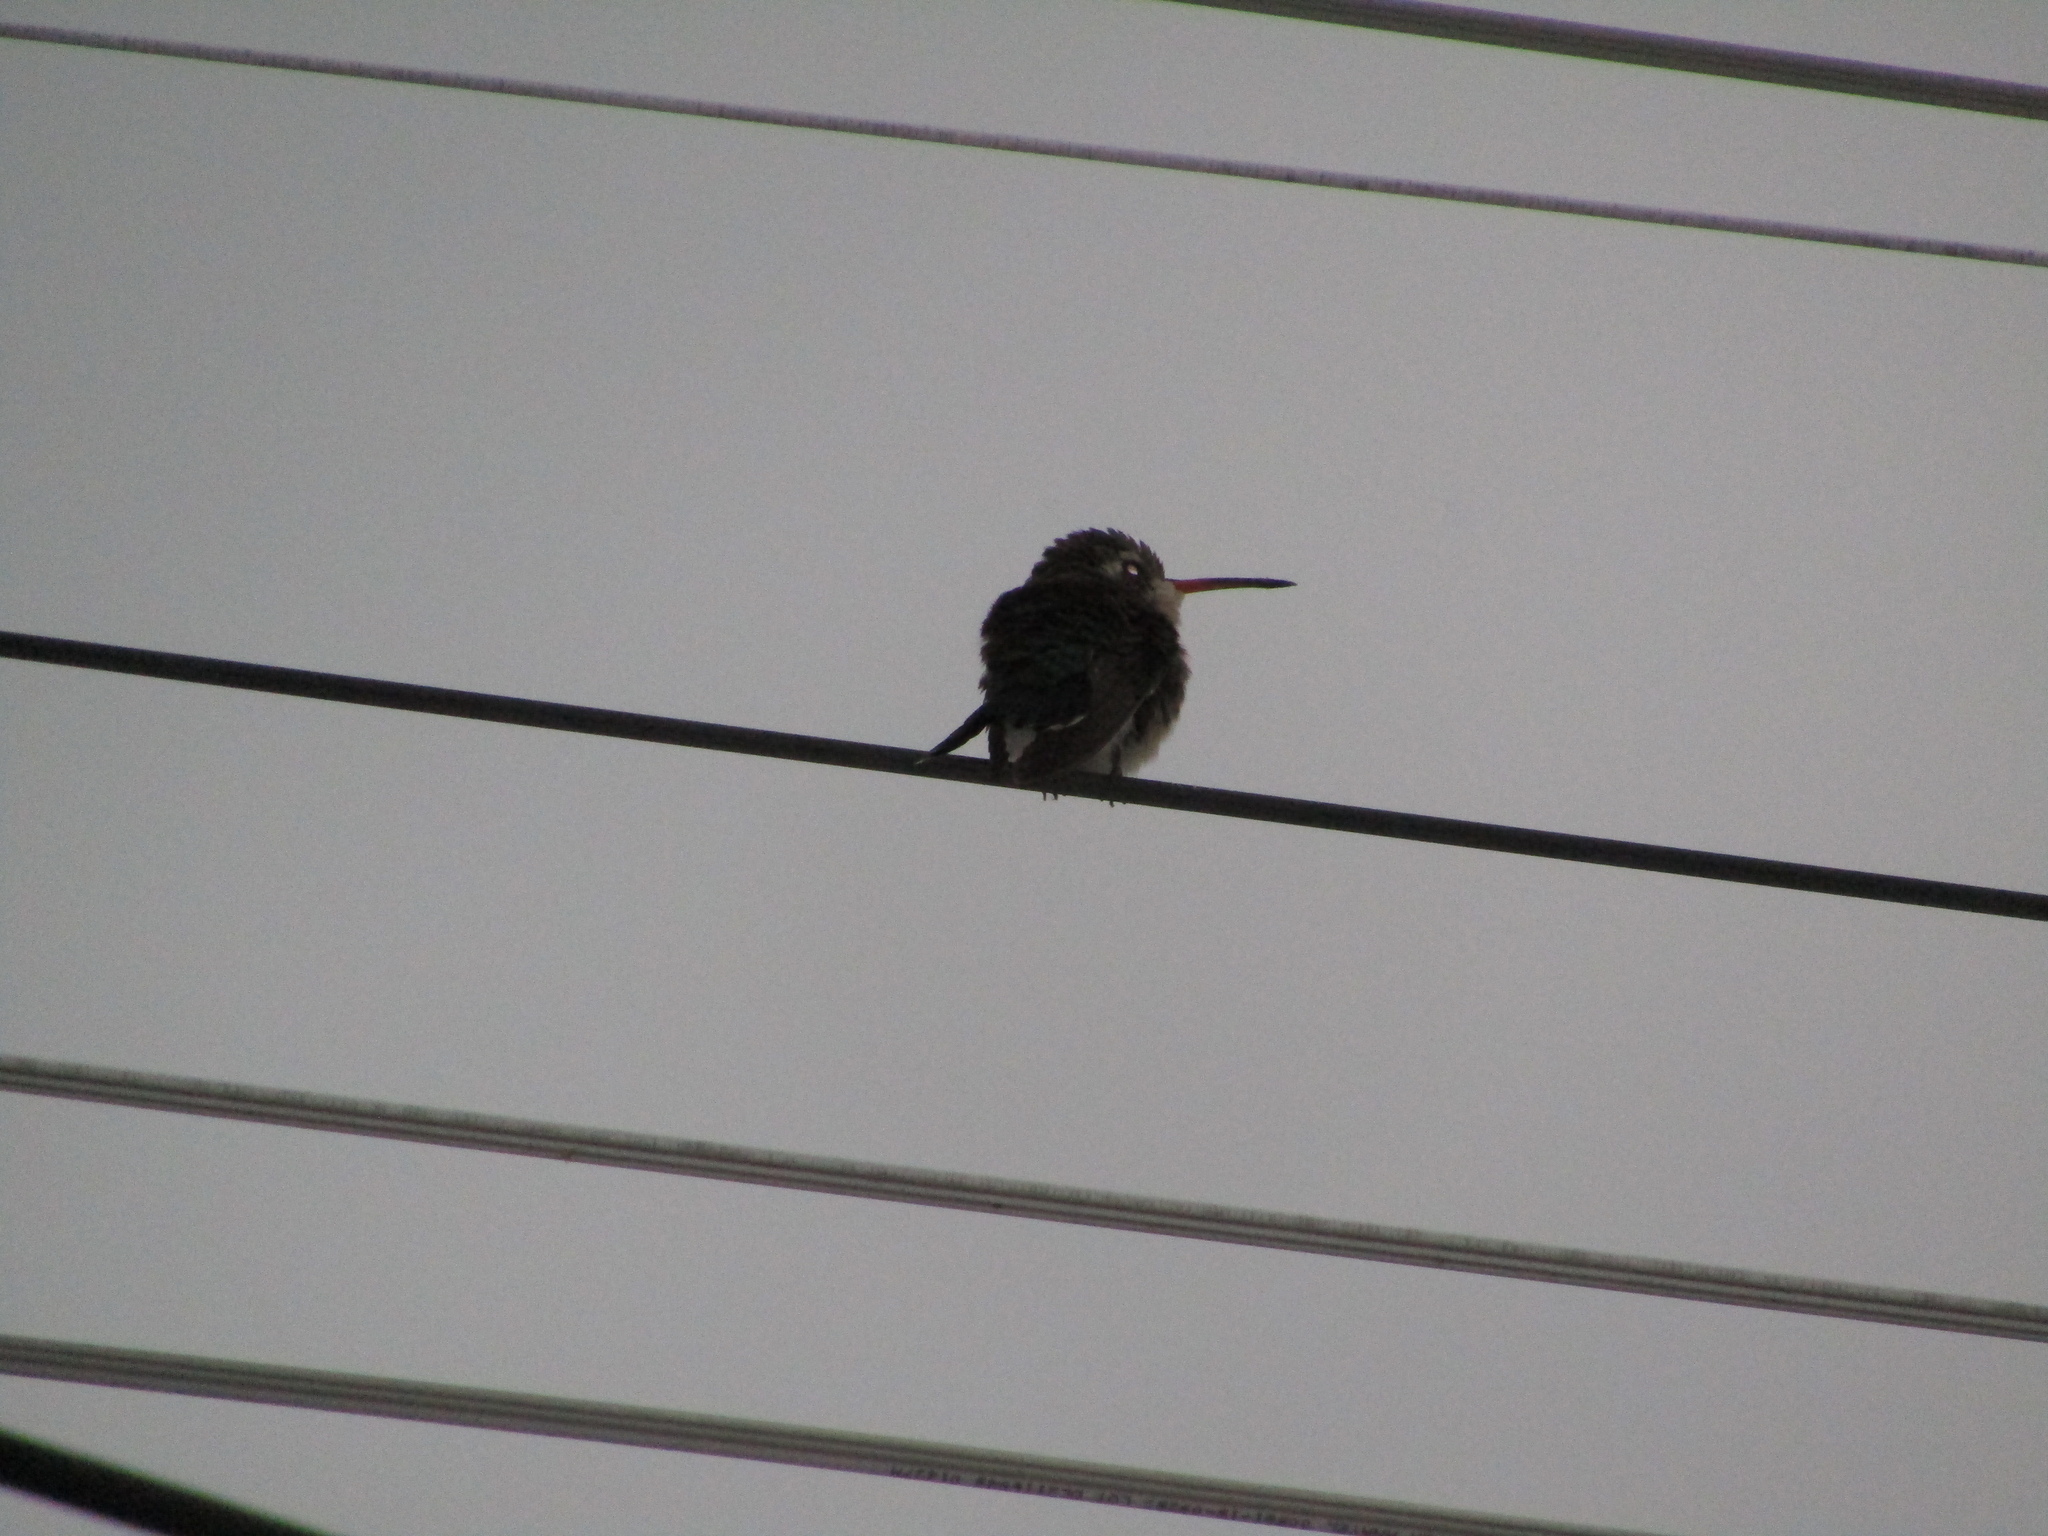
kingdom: Animalia
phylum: Chordata
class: Aves
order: Apodiformes
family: Trochilidae
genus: Chlorostilbon
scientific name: Chlorostilbon lucidus
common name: Glittering-bellied emerald
